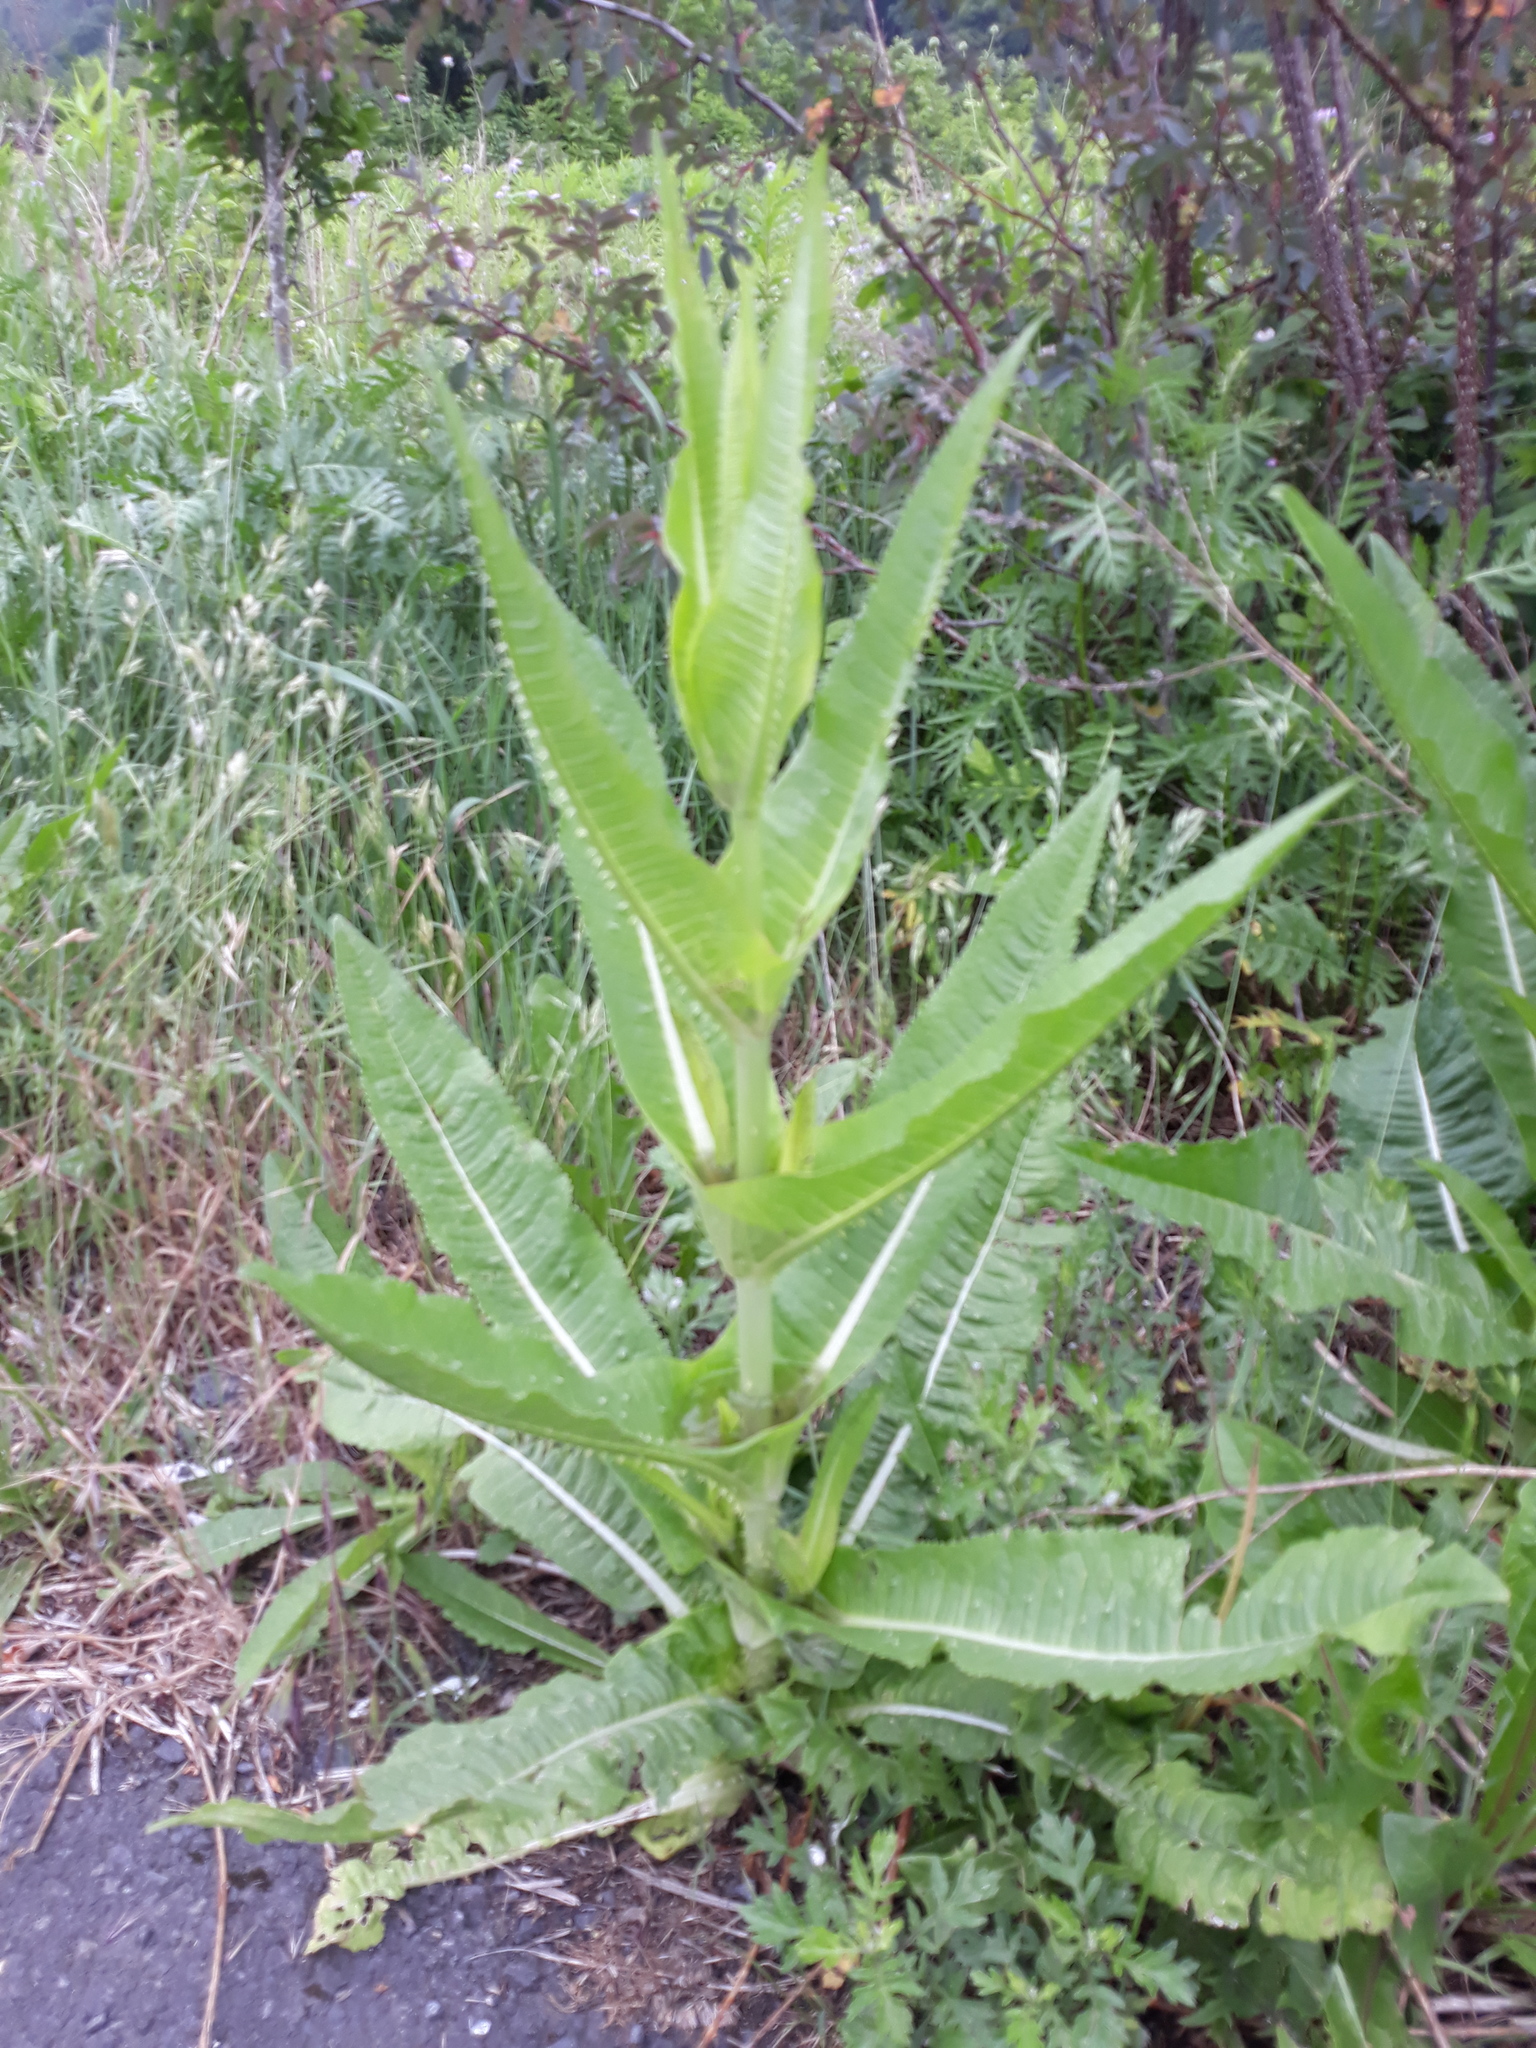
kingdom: Plantae
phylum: Tracheophyta
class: Magnoliopsida
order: Dipsacales
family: Caprifoliaceae
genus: Dipsacus
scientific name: Dipsacus fullonum
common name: Teasel
